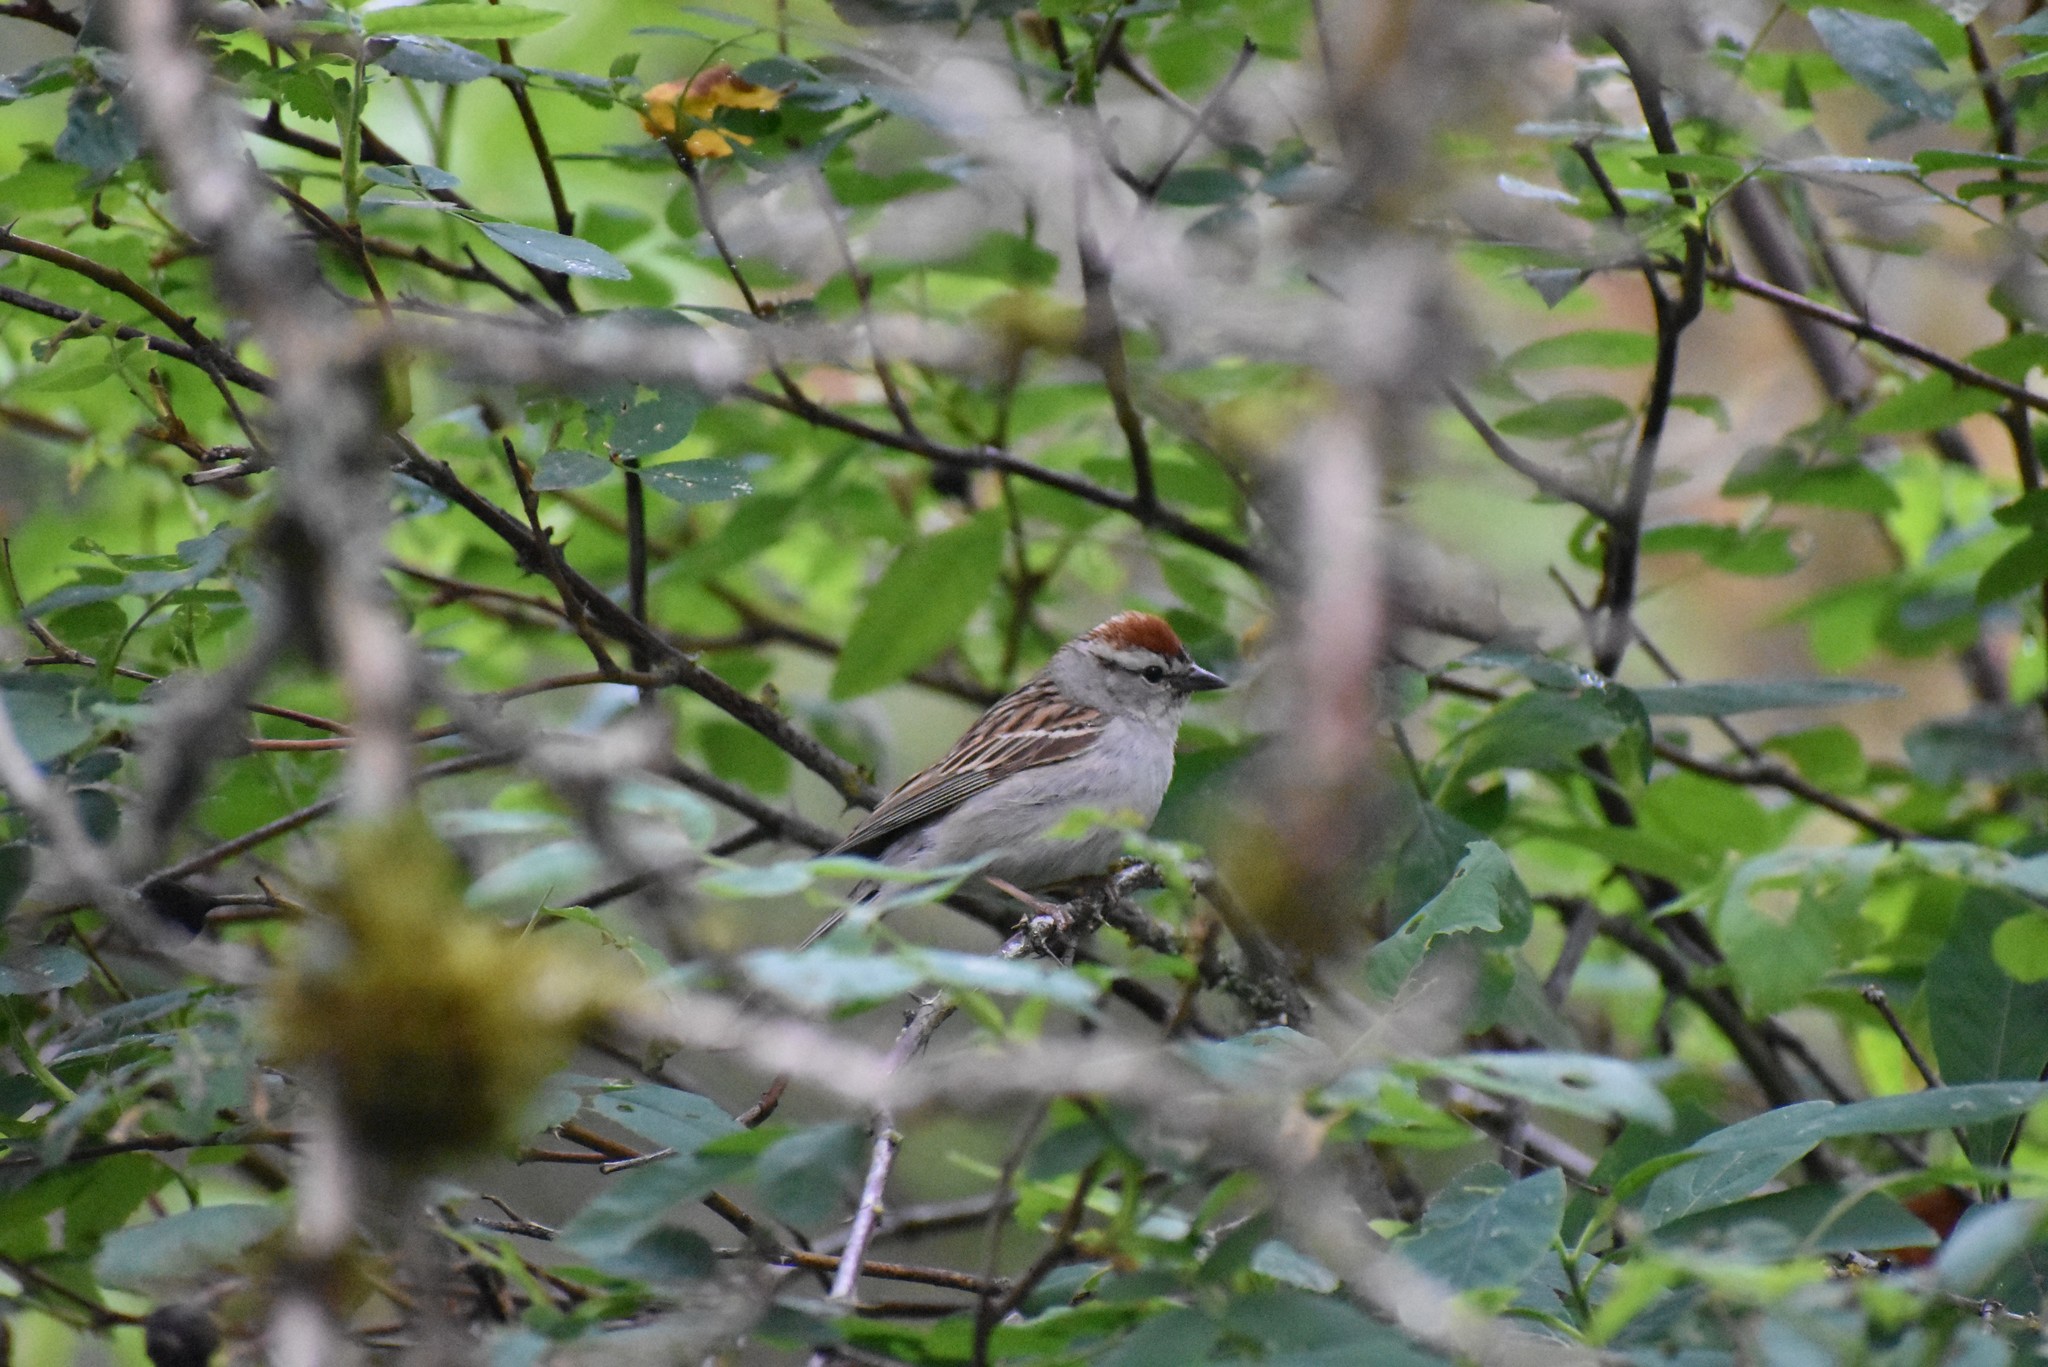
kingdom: Animalia
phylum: Chordata
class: Aves
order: Passeriformes
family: Passerellidae
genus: Spizella
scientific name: Spizella passerina
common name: Chipping sparrow
